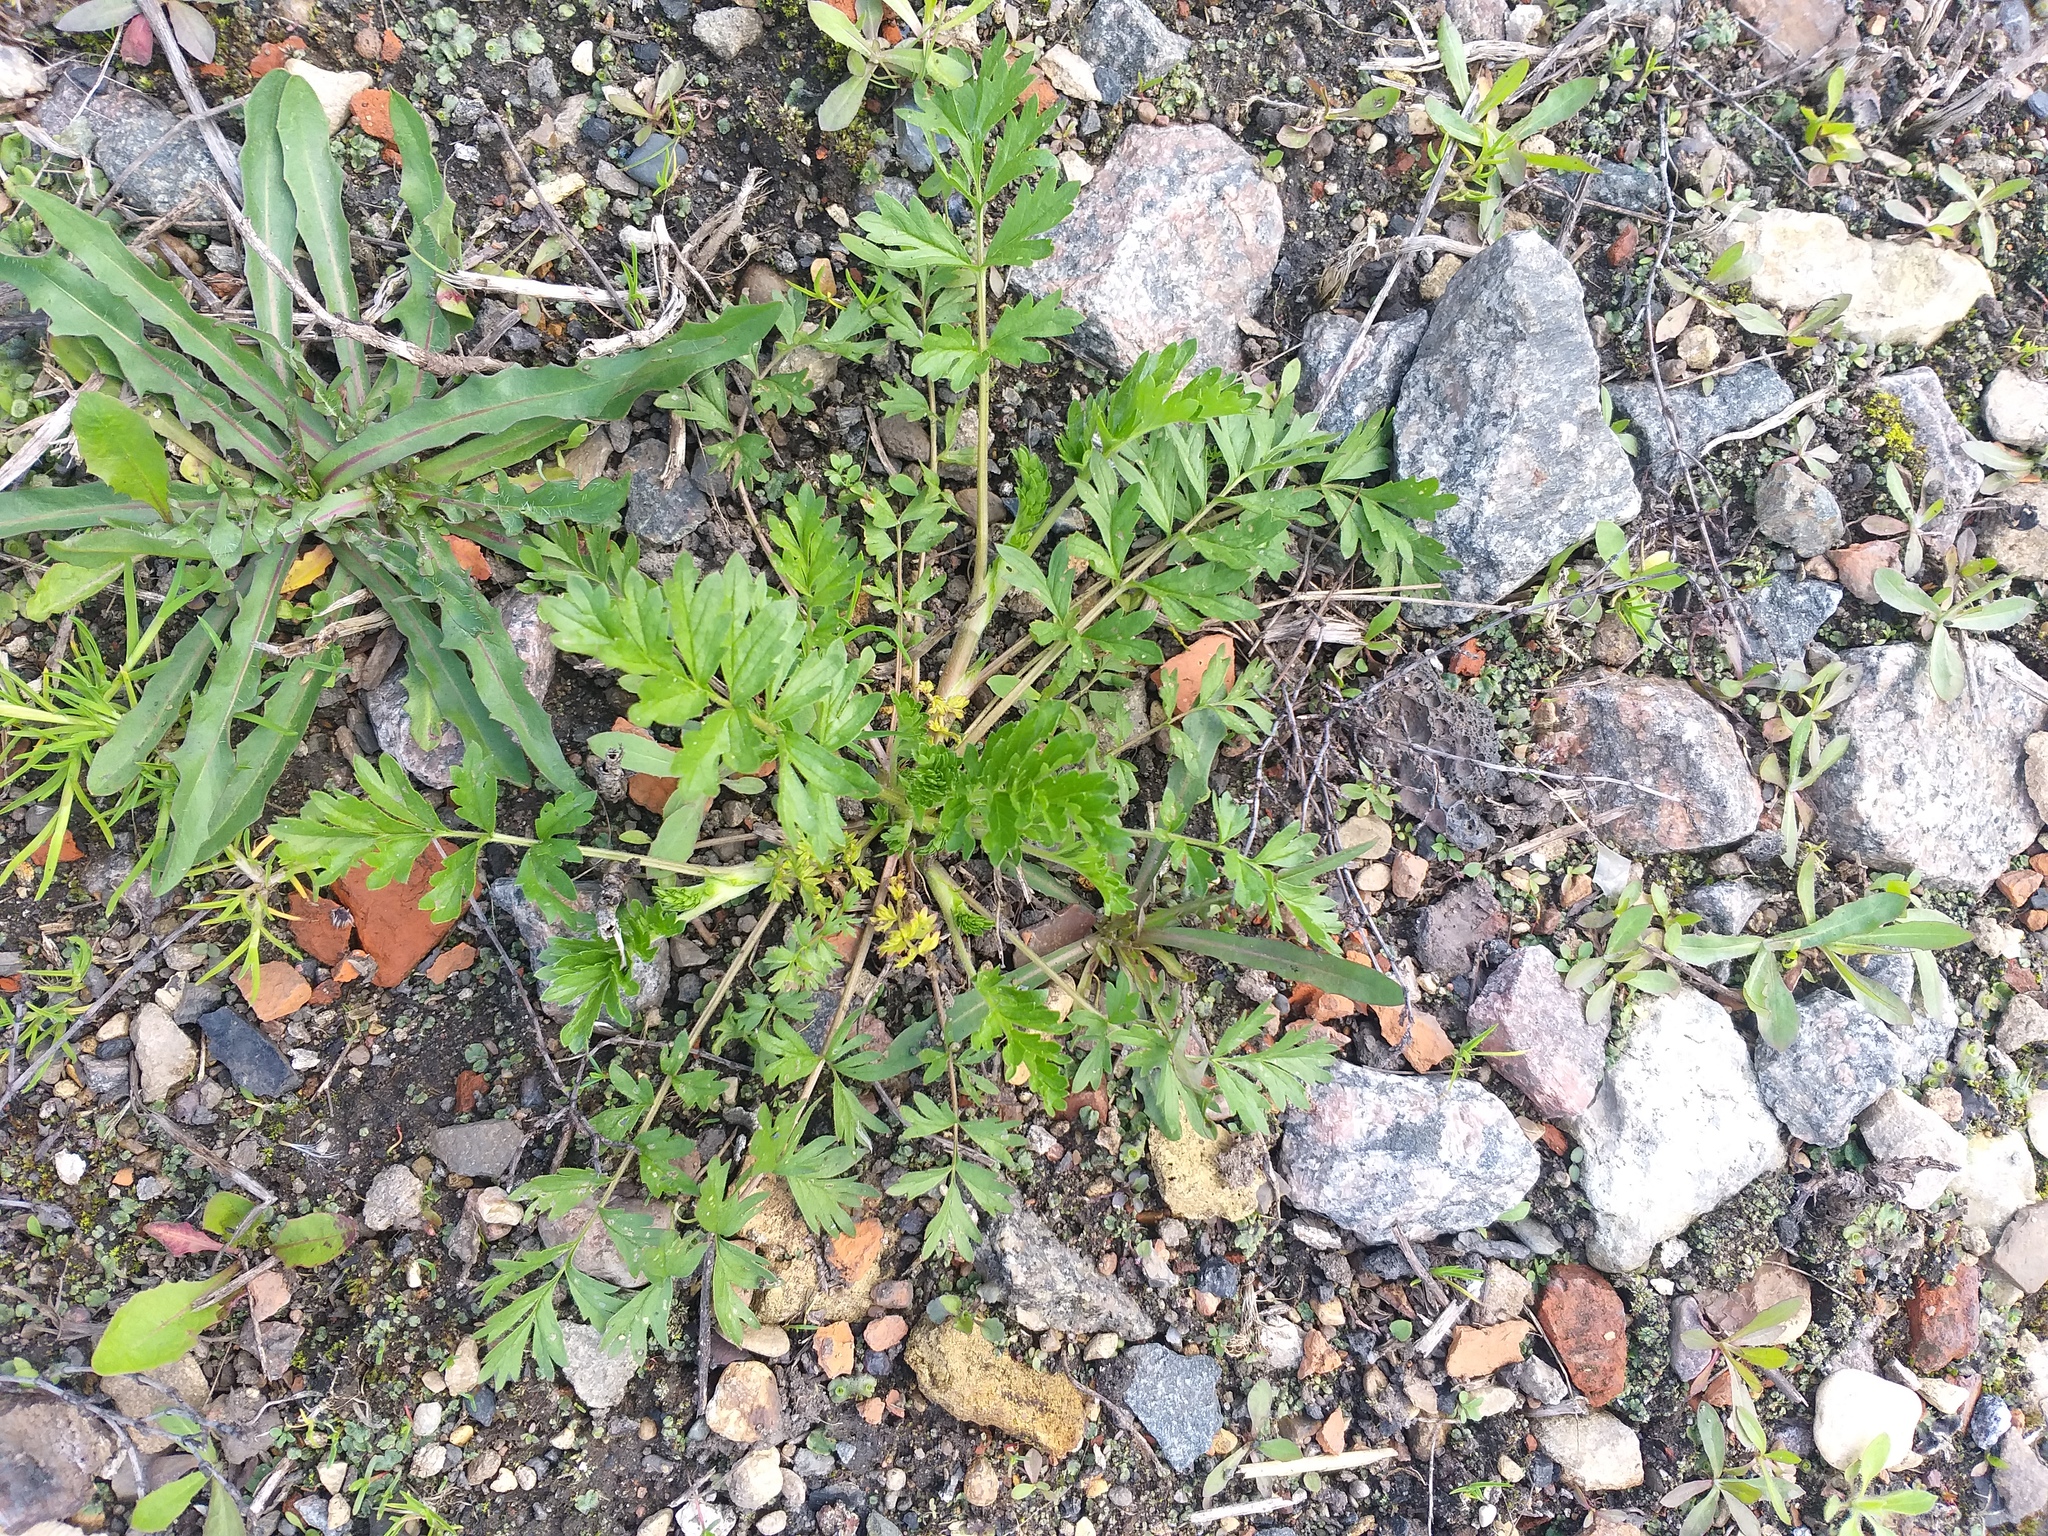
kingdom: Plantae
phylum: Tracheophyta
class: Magnoliopsida
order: Rosales
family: Rosaceae
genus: Potentilla
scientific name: Potentilla supina
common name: Prostrate cinquefoil
